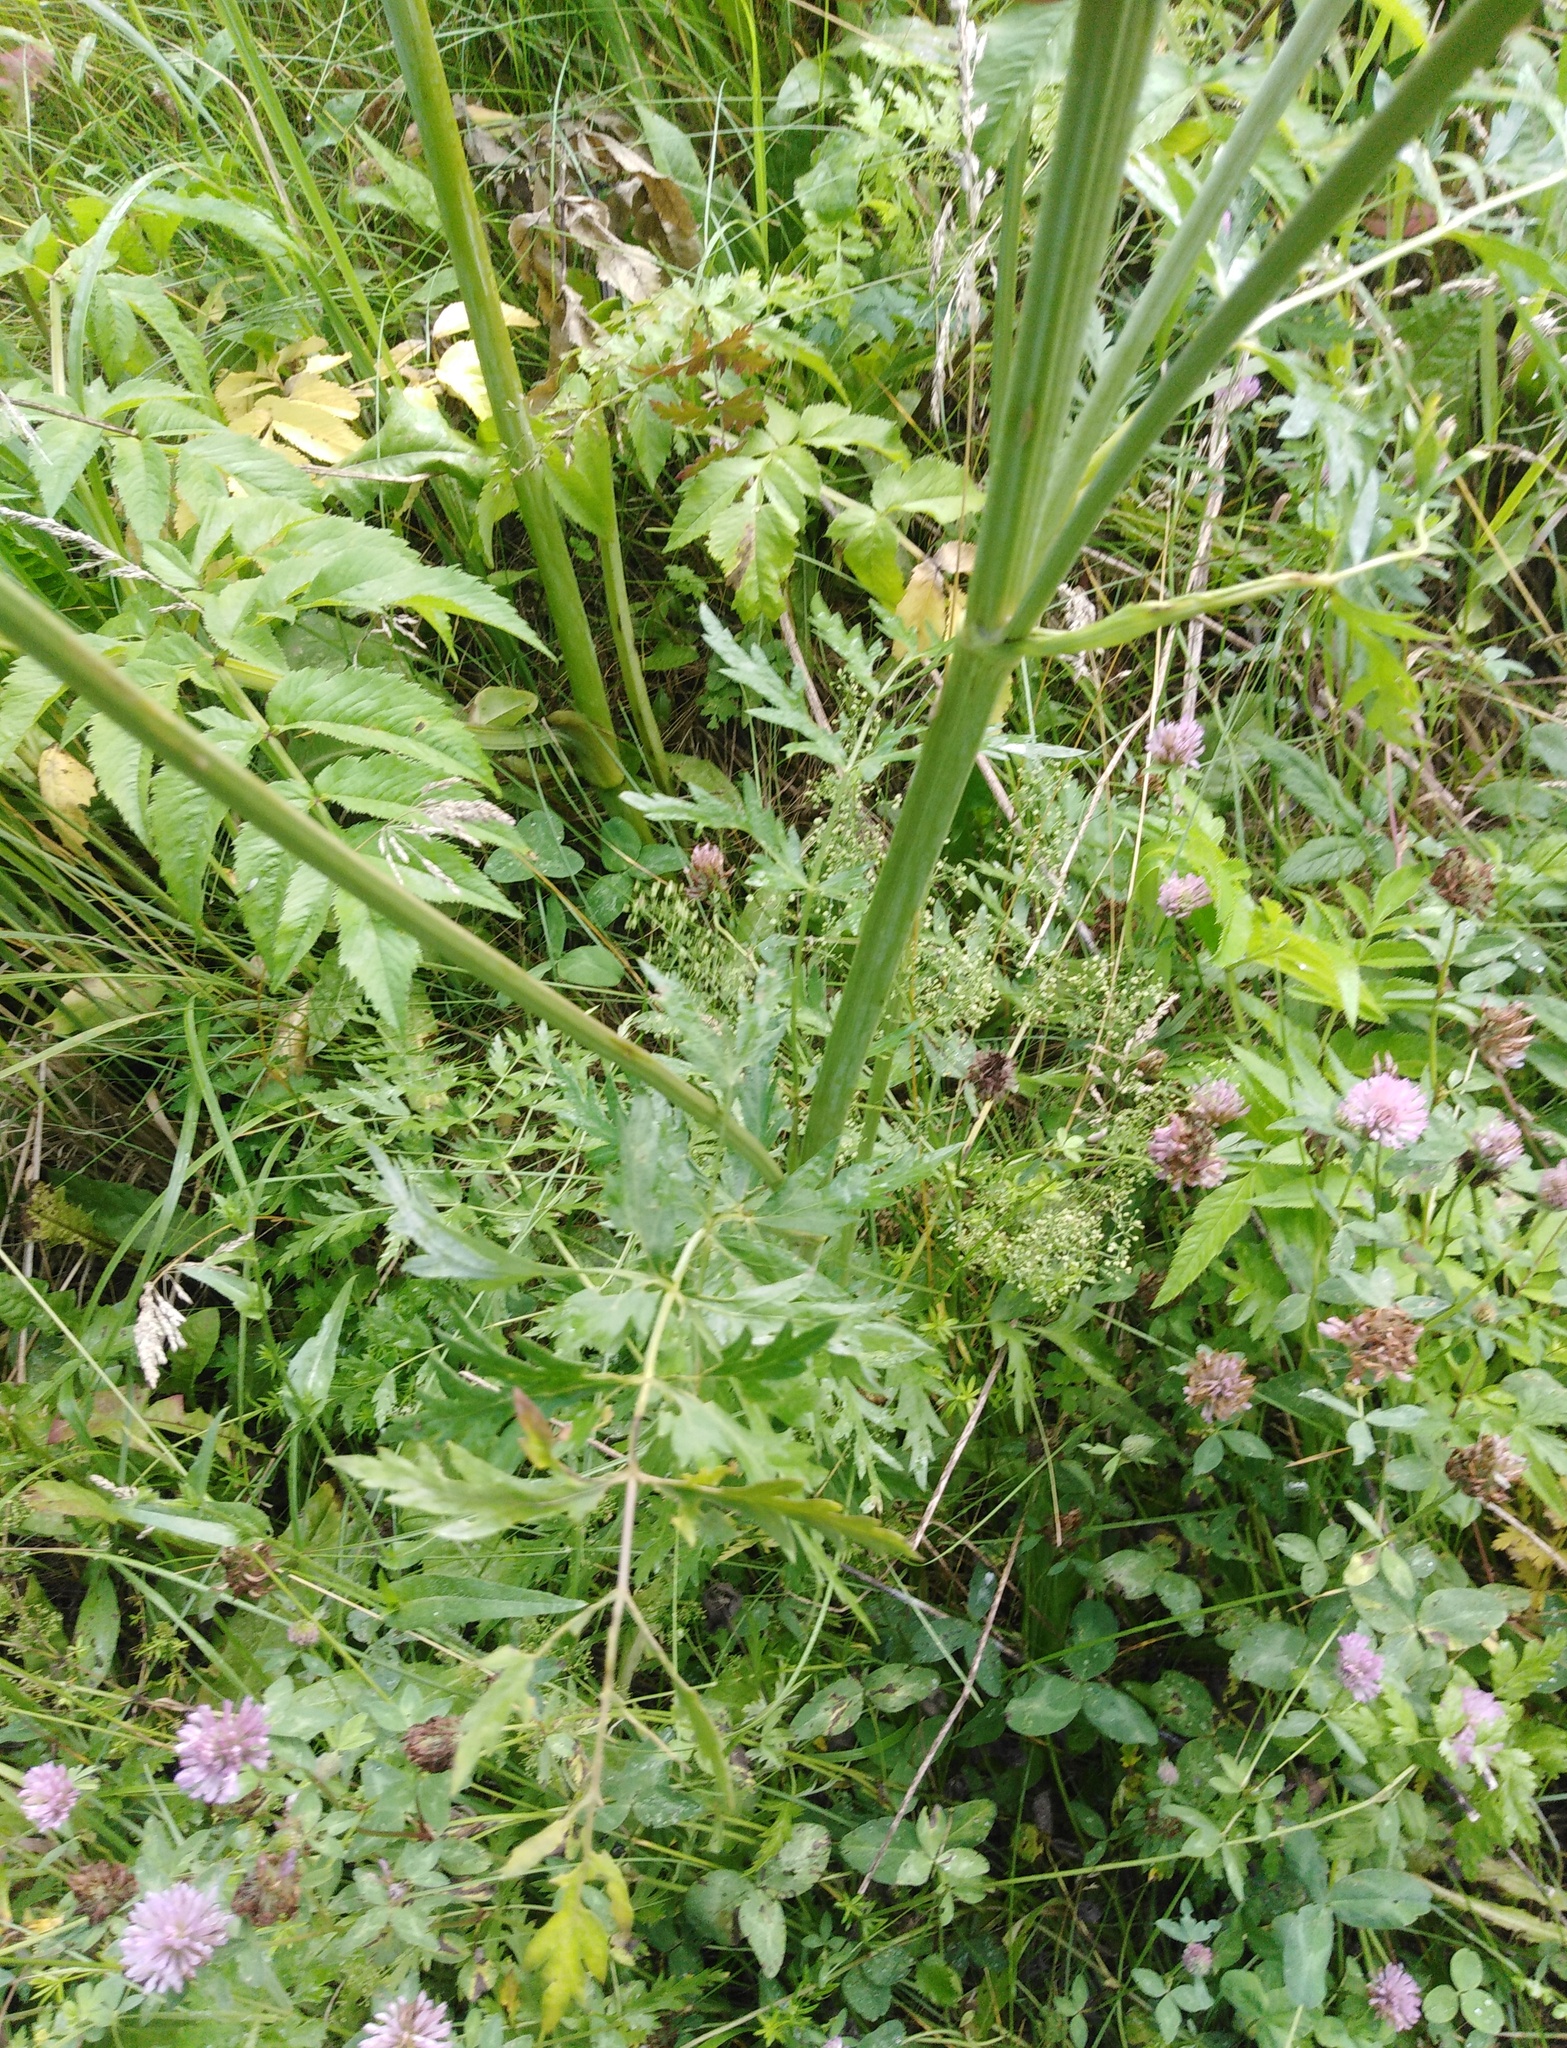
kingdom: Plantae
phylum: Tracheophyta
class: Magnoliopsida
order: Apiales
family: Apiaceae
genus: Seseli
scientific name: Seseli libanotis
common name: Mooncarrot
